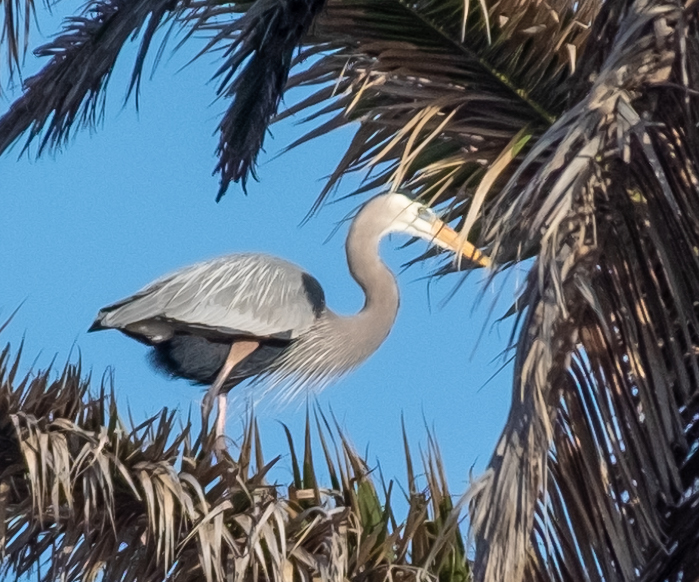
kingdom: Animalia
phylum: Chordata
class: Aves
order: Pelecaniformes
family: Ardeidae
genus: Ardea
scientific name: Ardea herodias
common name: Great blue heron
